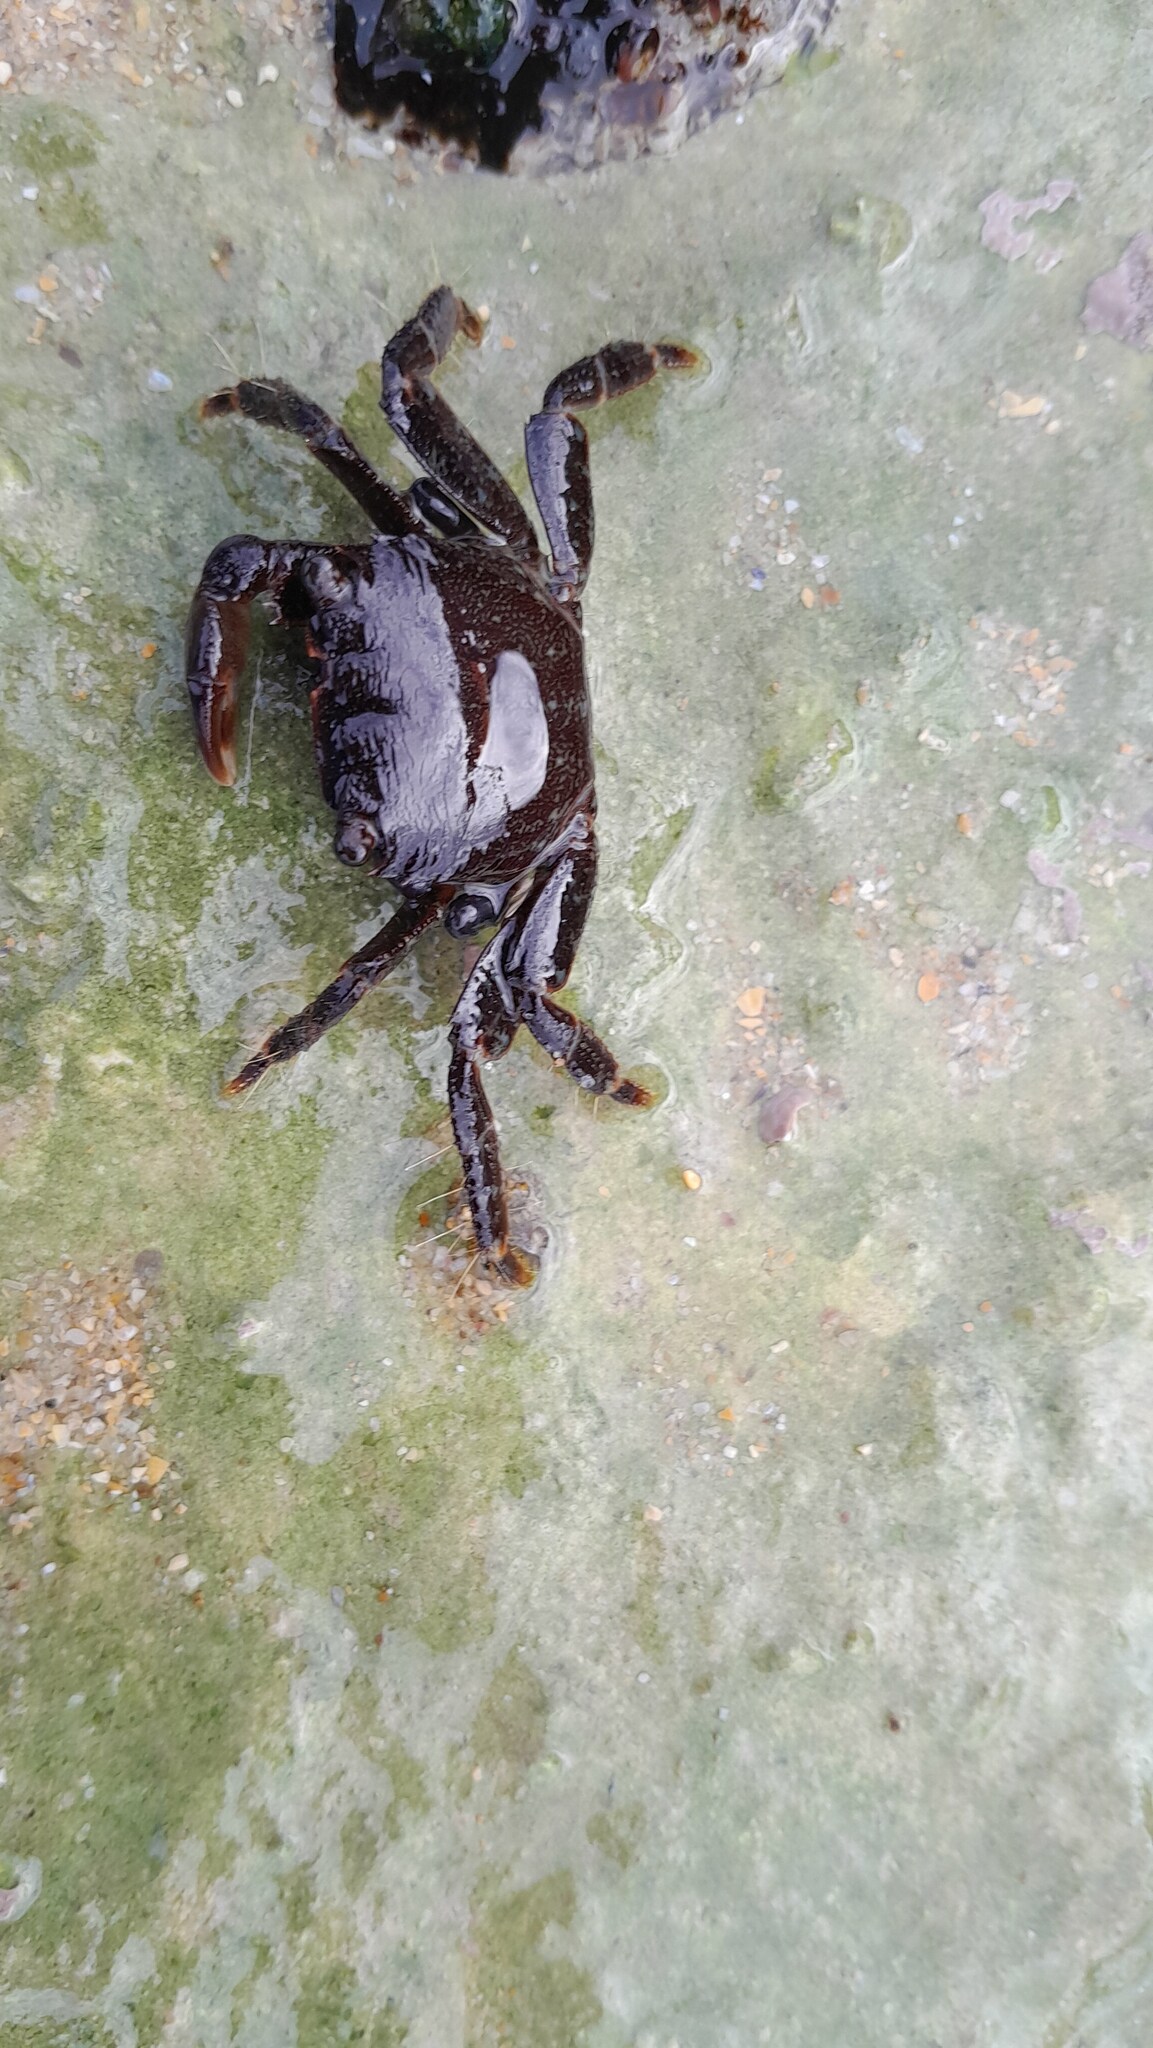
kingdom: Animalia
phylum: Arthropoda
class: Malacostraca
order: Decapoda
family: Grapsidae
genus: Pachygrapsus
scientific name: Pachygrapsus marmoratus
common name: Marbled rock crab
